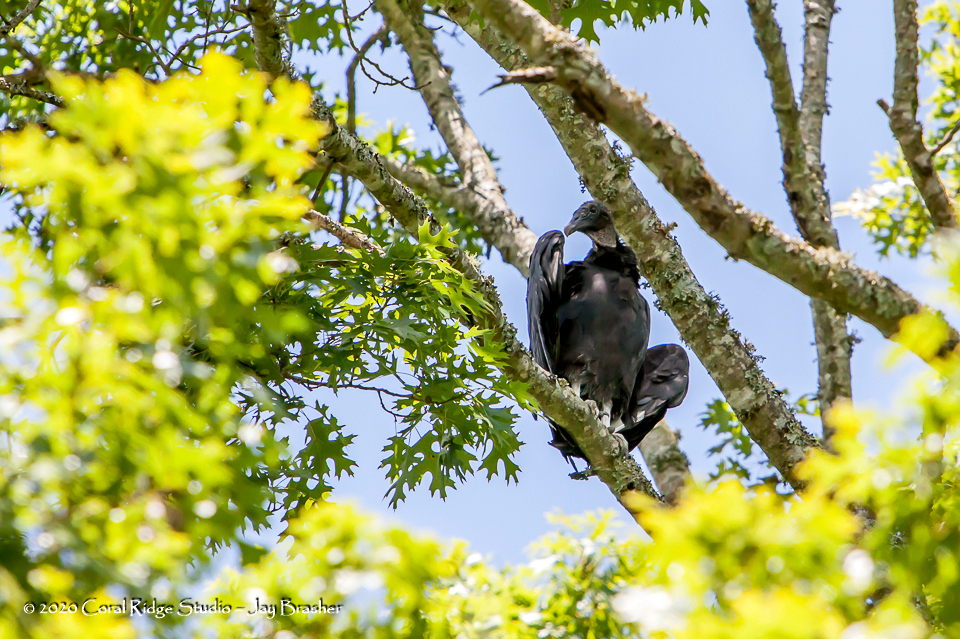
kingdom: Animalia
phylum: Chordata
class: Aves
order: Accipitriformes
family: Cathartidae
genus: Coragyps
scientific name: Coragyps atratus
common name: Black vulture
